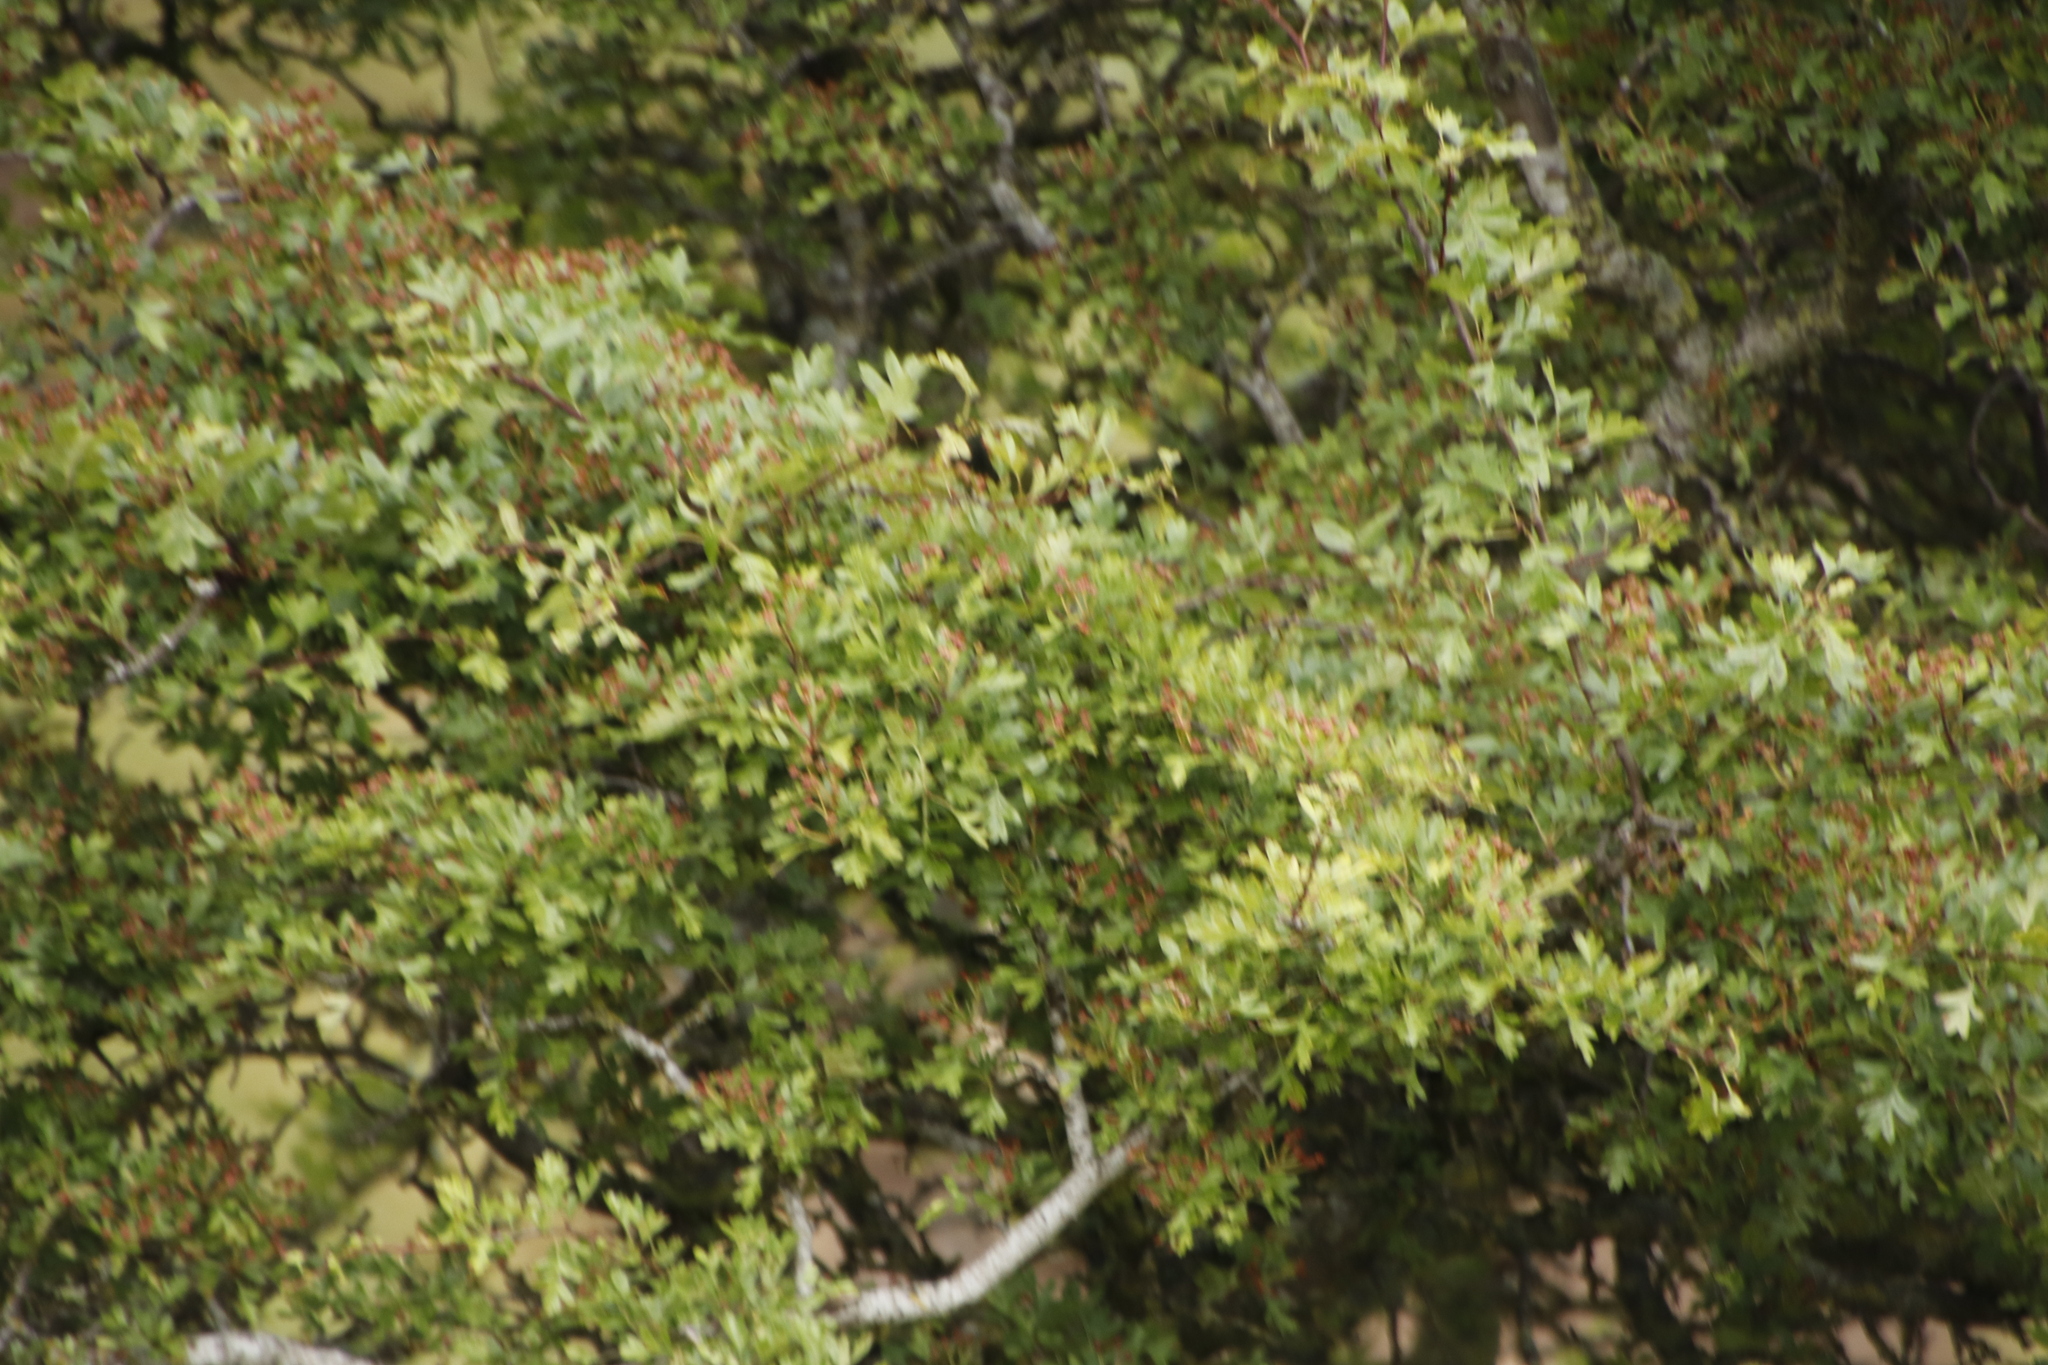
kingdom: Plantae
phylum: Tracheophyta
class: Magnoliopsida
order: Rosales
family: Rosaceae
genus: Crataegus
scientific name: Crataegus monogyna
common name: Hawthorn
